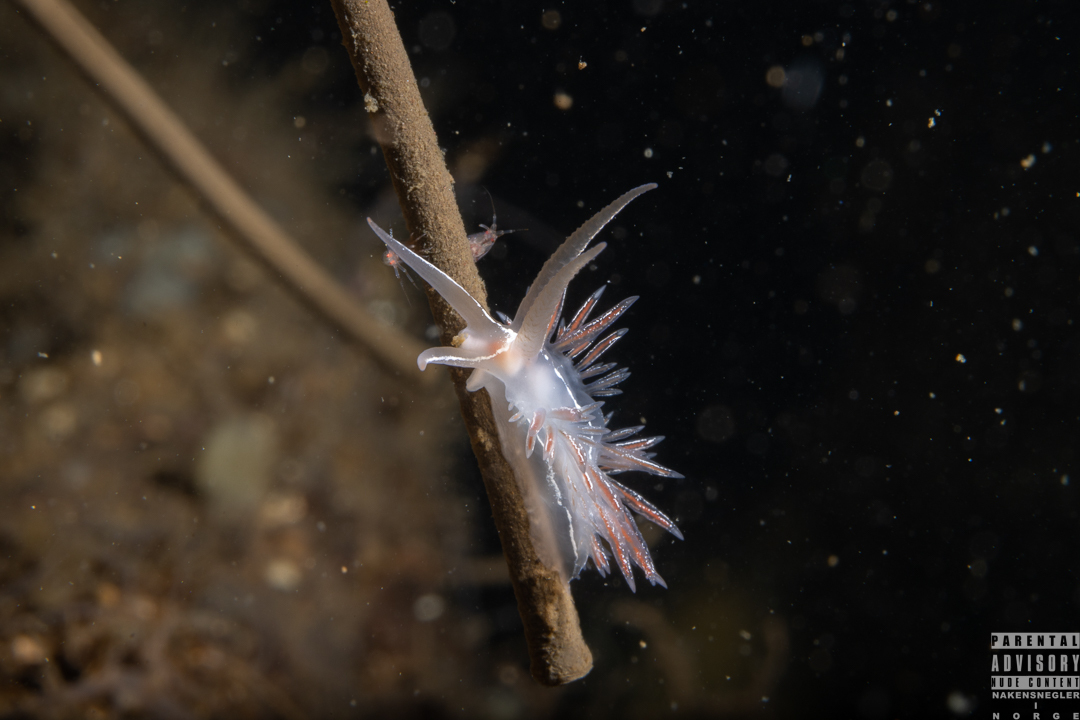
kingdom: Animalia
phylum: Mollusca
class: Gastropoda
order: Nudibranchia
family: Coryphellidae
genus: Coryphella
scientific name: Coryphella chriskaugei
